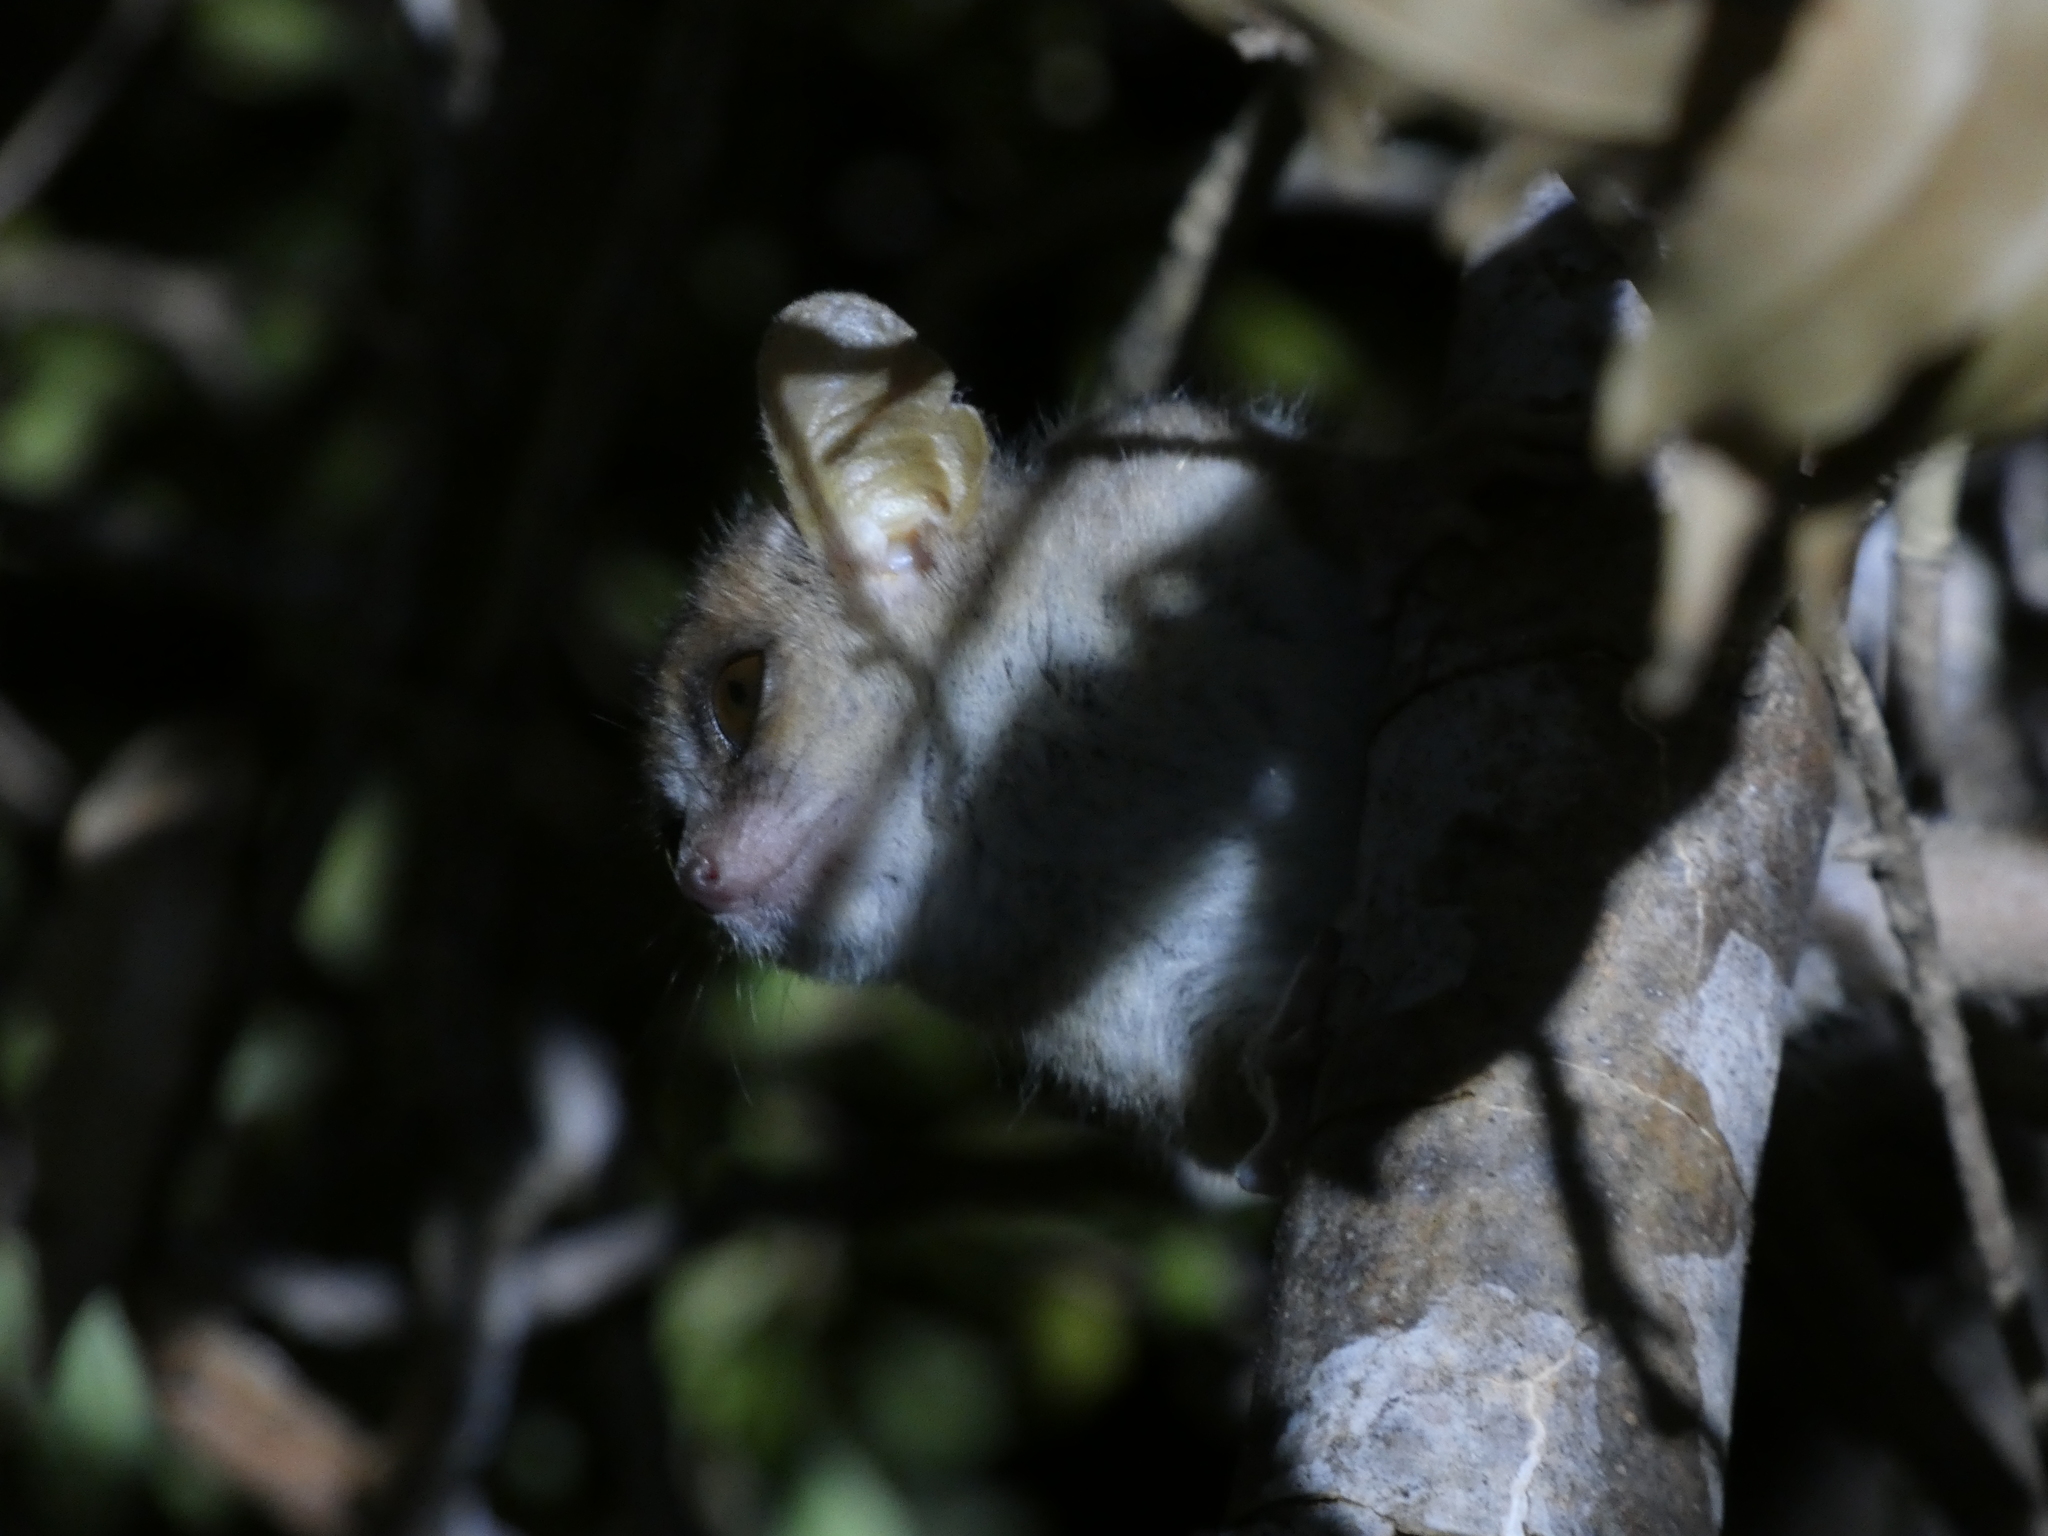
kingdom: Animalia
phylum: Chordata
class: Mammalia
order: Primates
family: Cheirogaleidae
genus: Microcebus
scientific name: Microcebus murinus
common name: Gray mouse lemur
